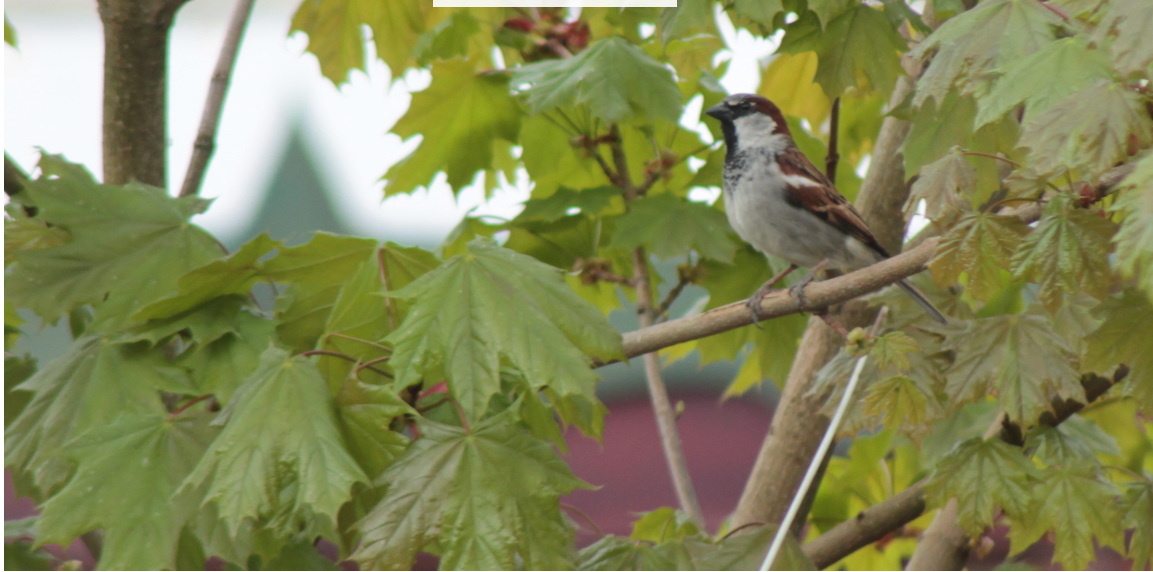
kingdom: Animalia
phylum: Chordata
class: Aves
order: Passeriformes
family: Passeridae
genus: Passer
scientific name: Passer domesticus
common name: House sparrow
